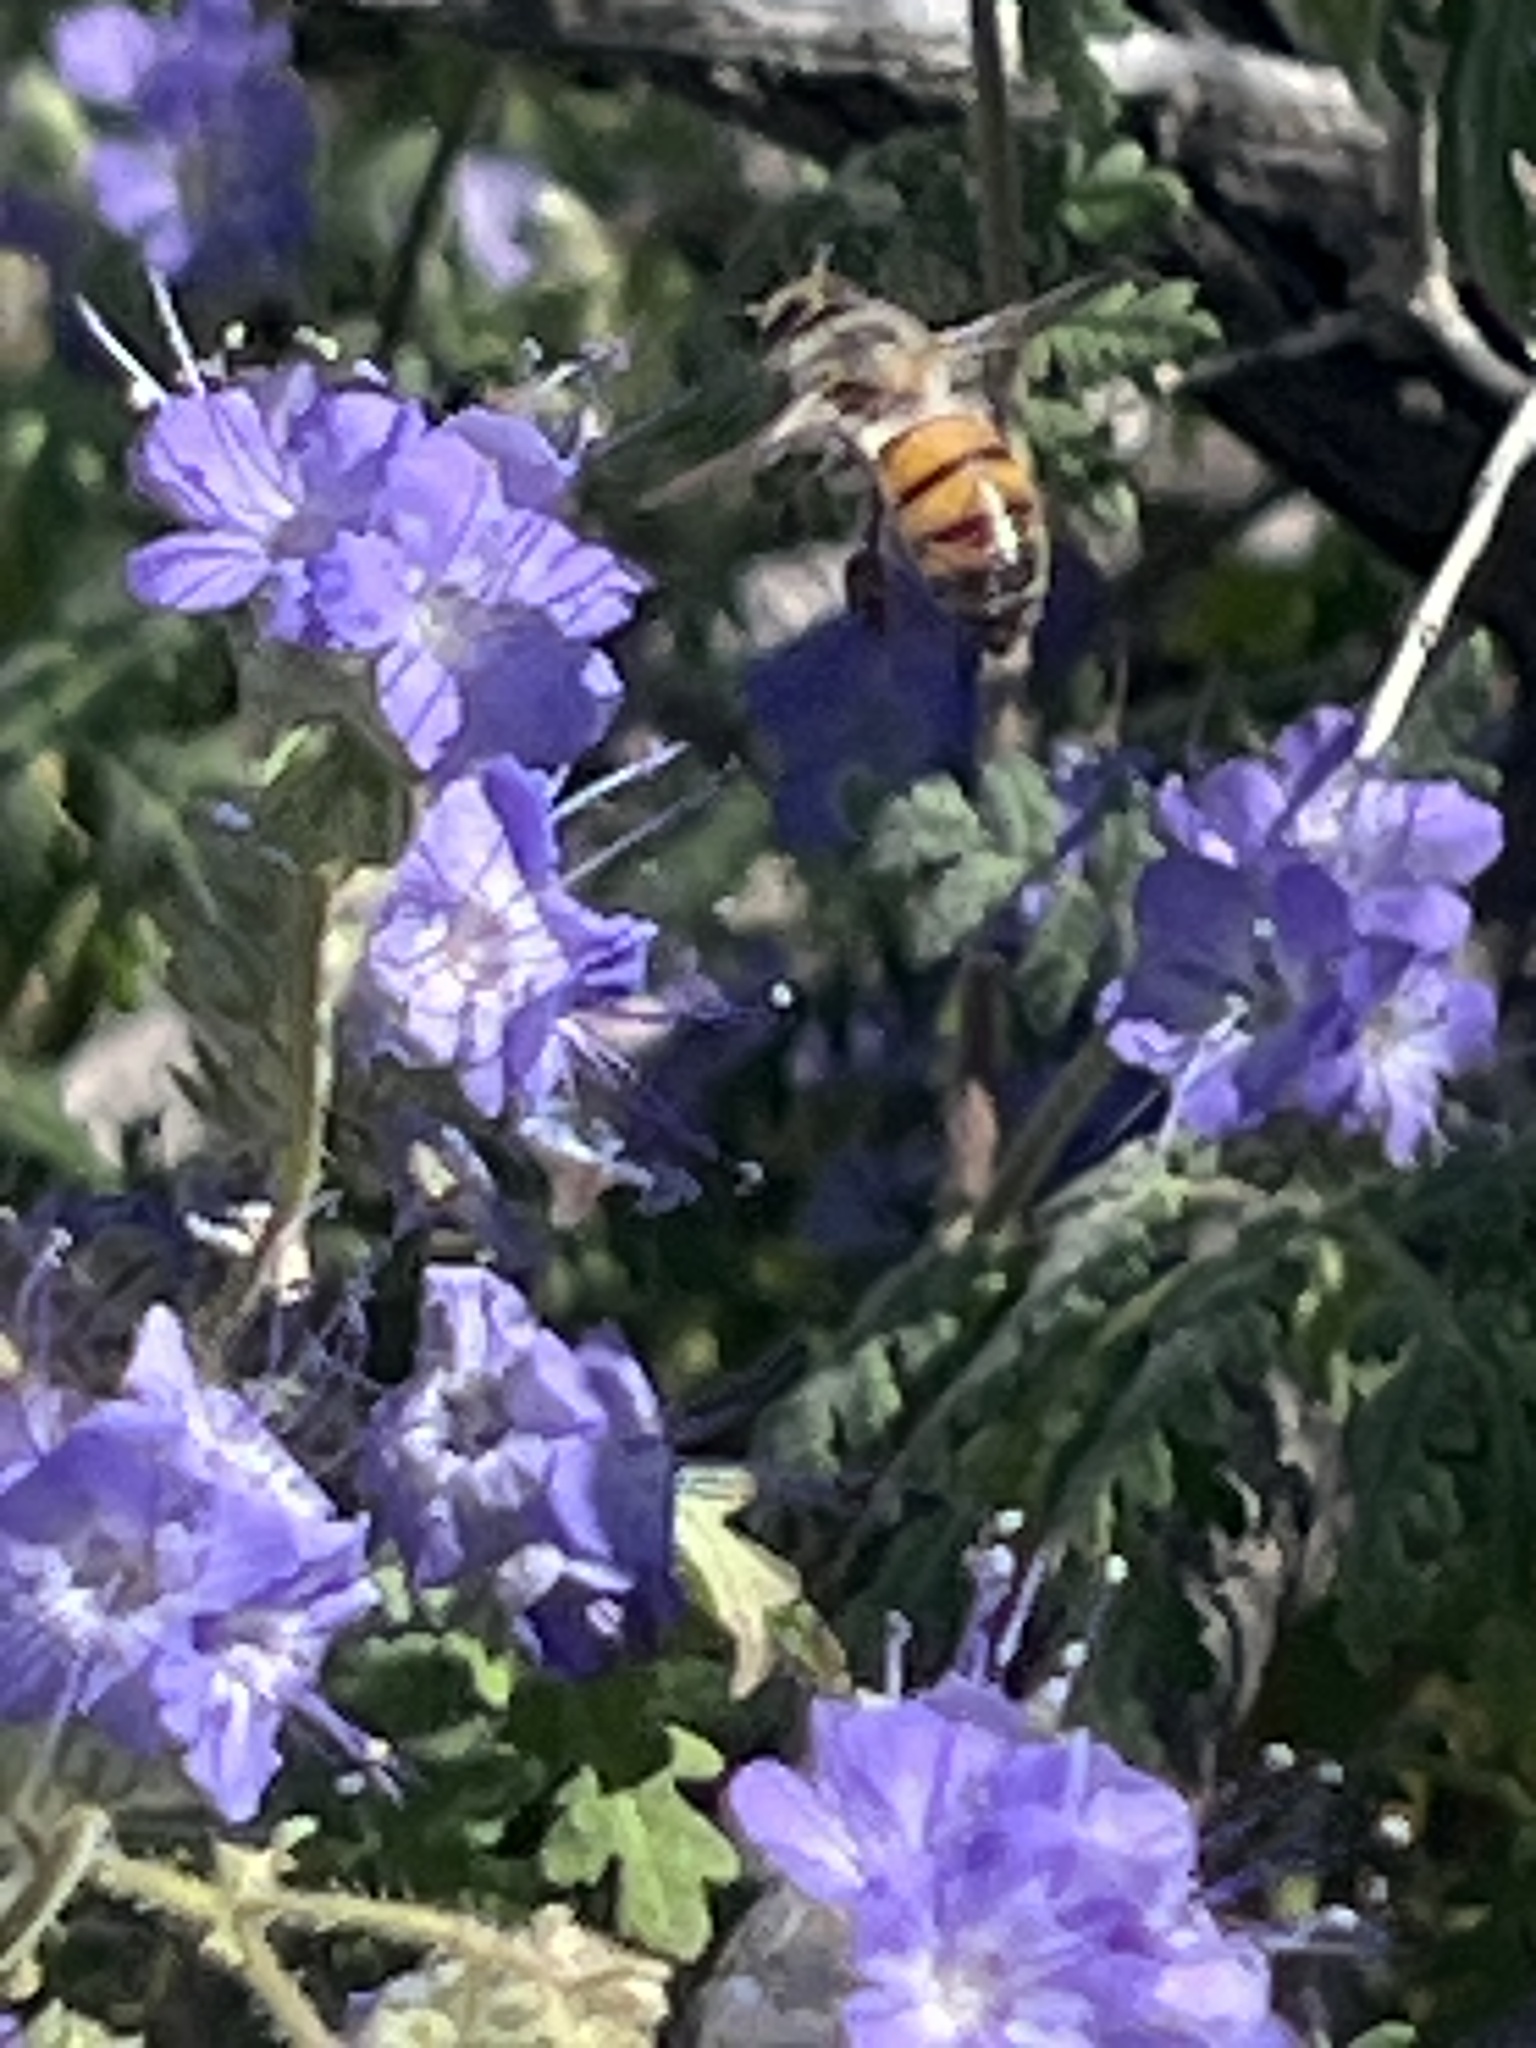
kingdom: Animalia
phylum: Arthropoda
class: Insecta
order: Hymenoptera
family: Apidae
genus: Apis
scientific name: Apis mellifera
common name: Honey bee
